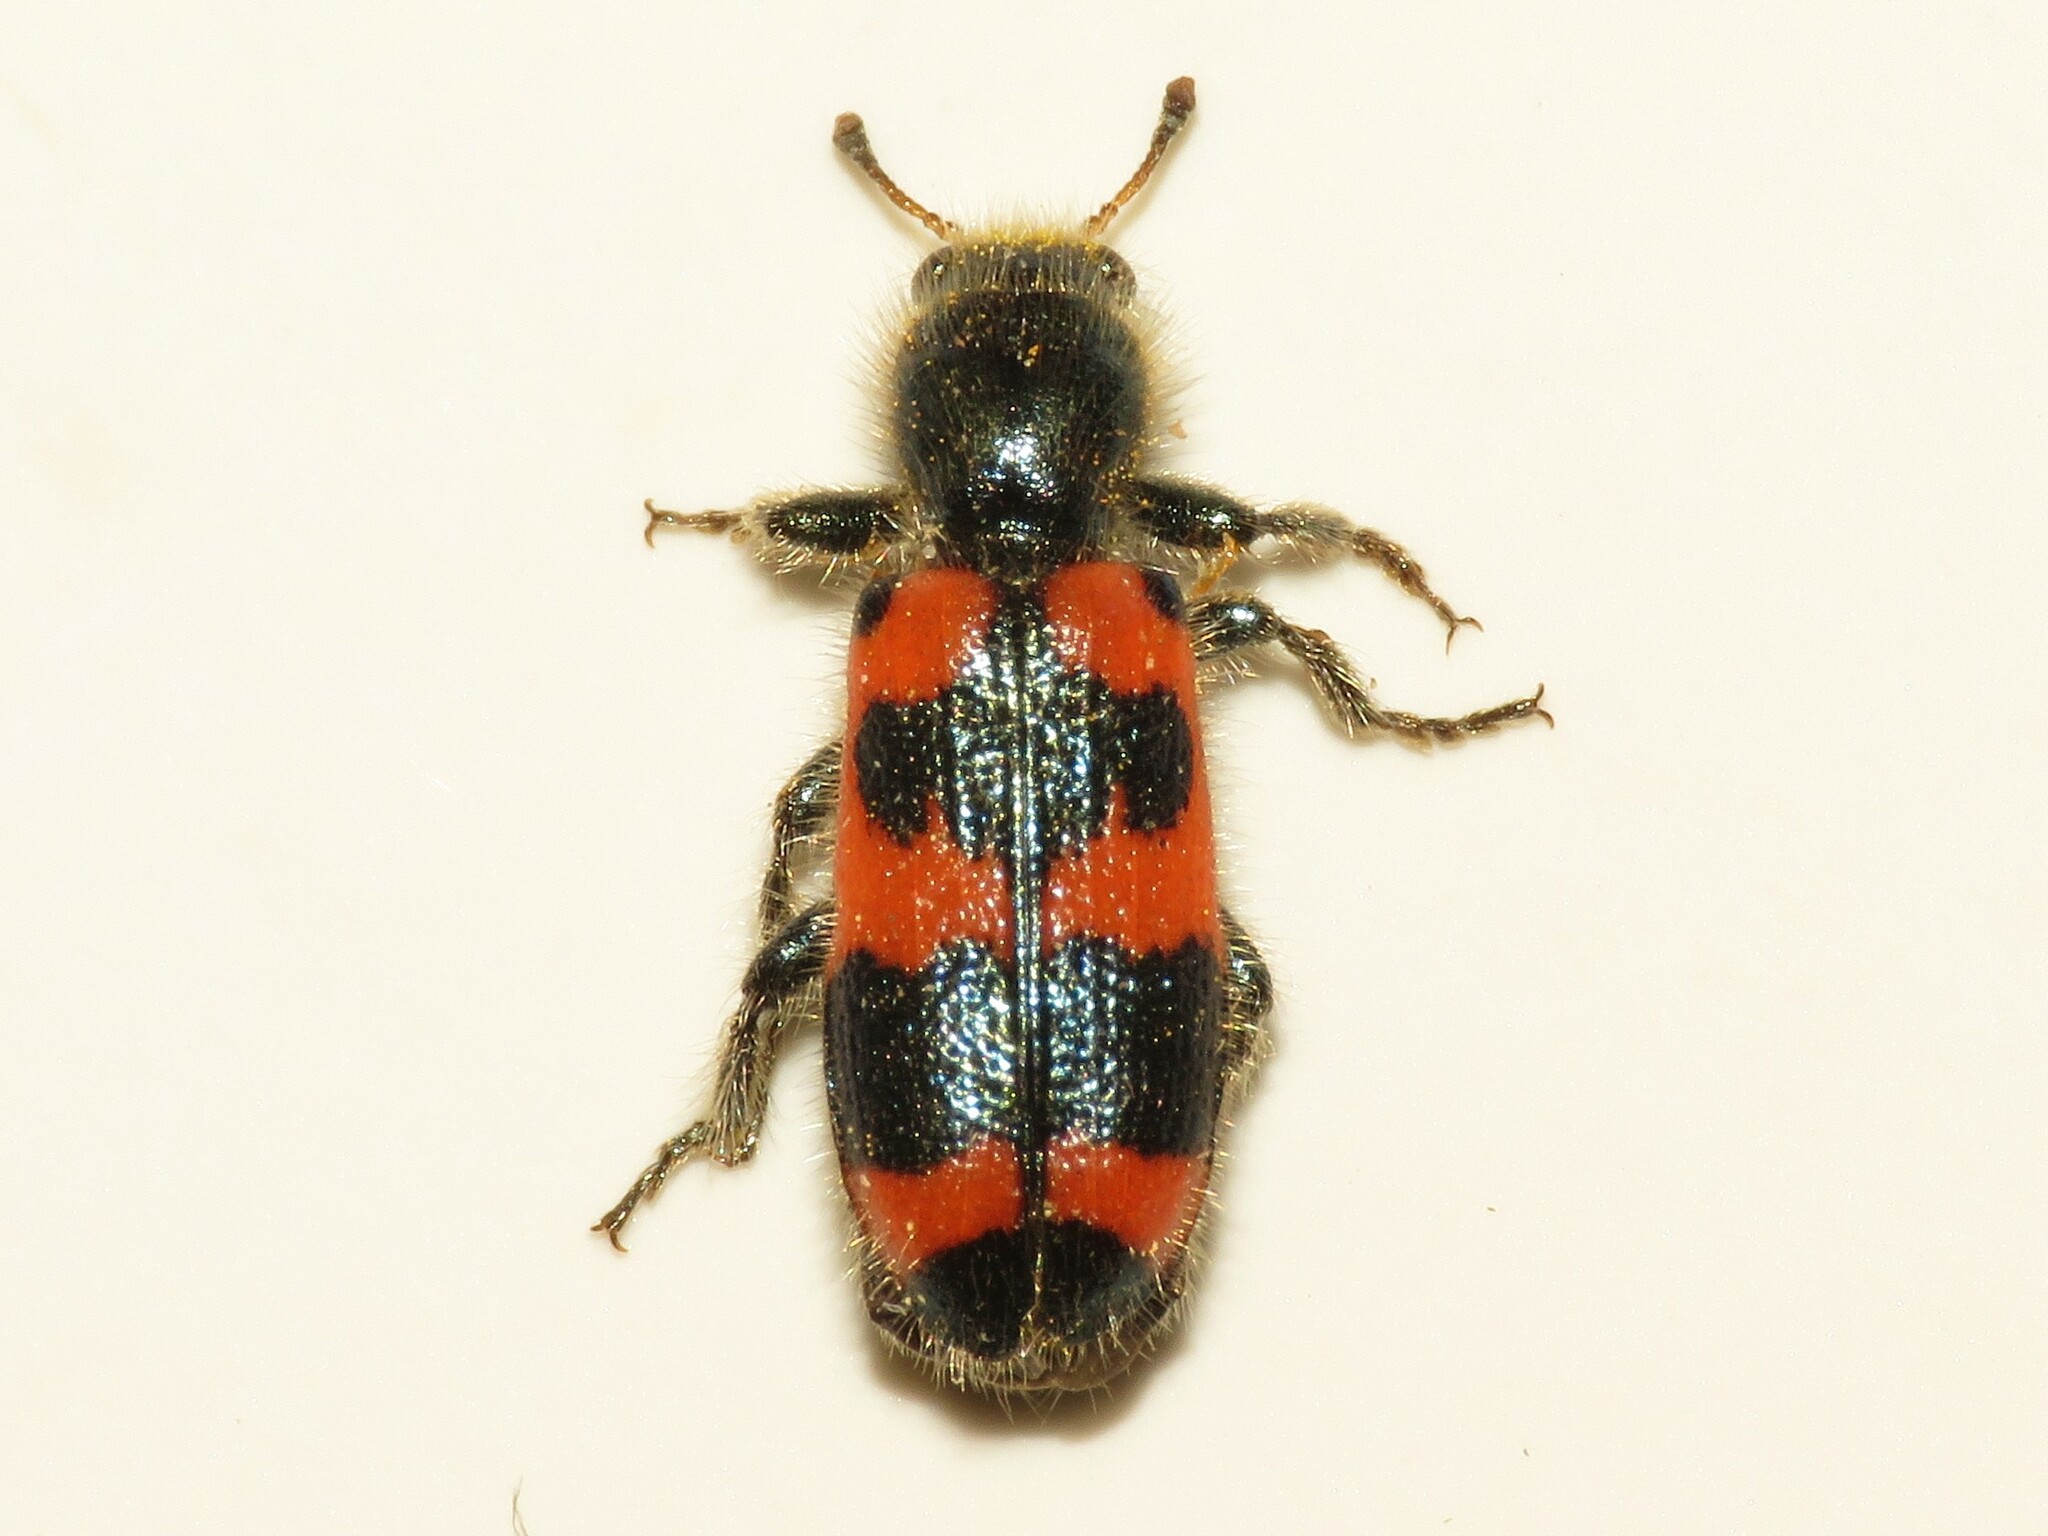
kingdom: Animalia
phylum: Arthropoda
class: Insecta
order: Coleoptera
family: Cleridae
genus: Trichodes
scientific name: Trichodes nutalli
